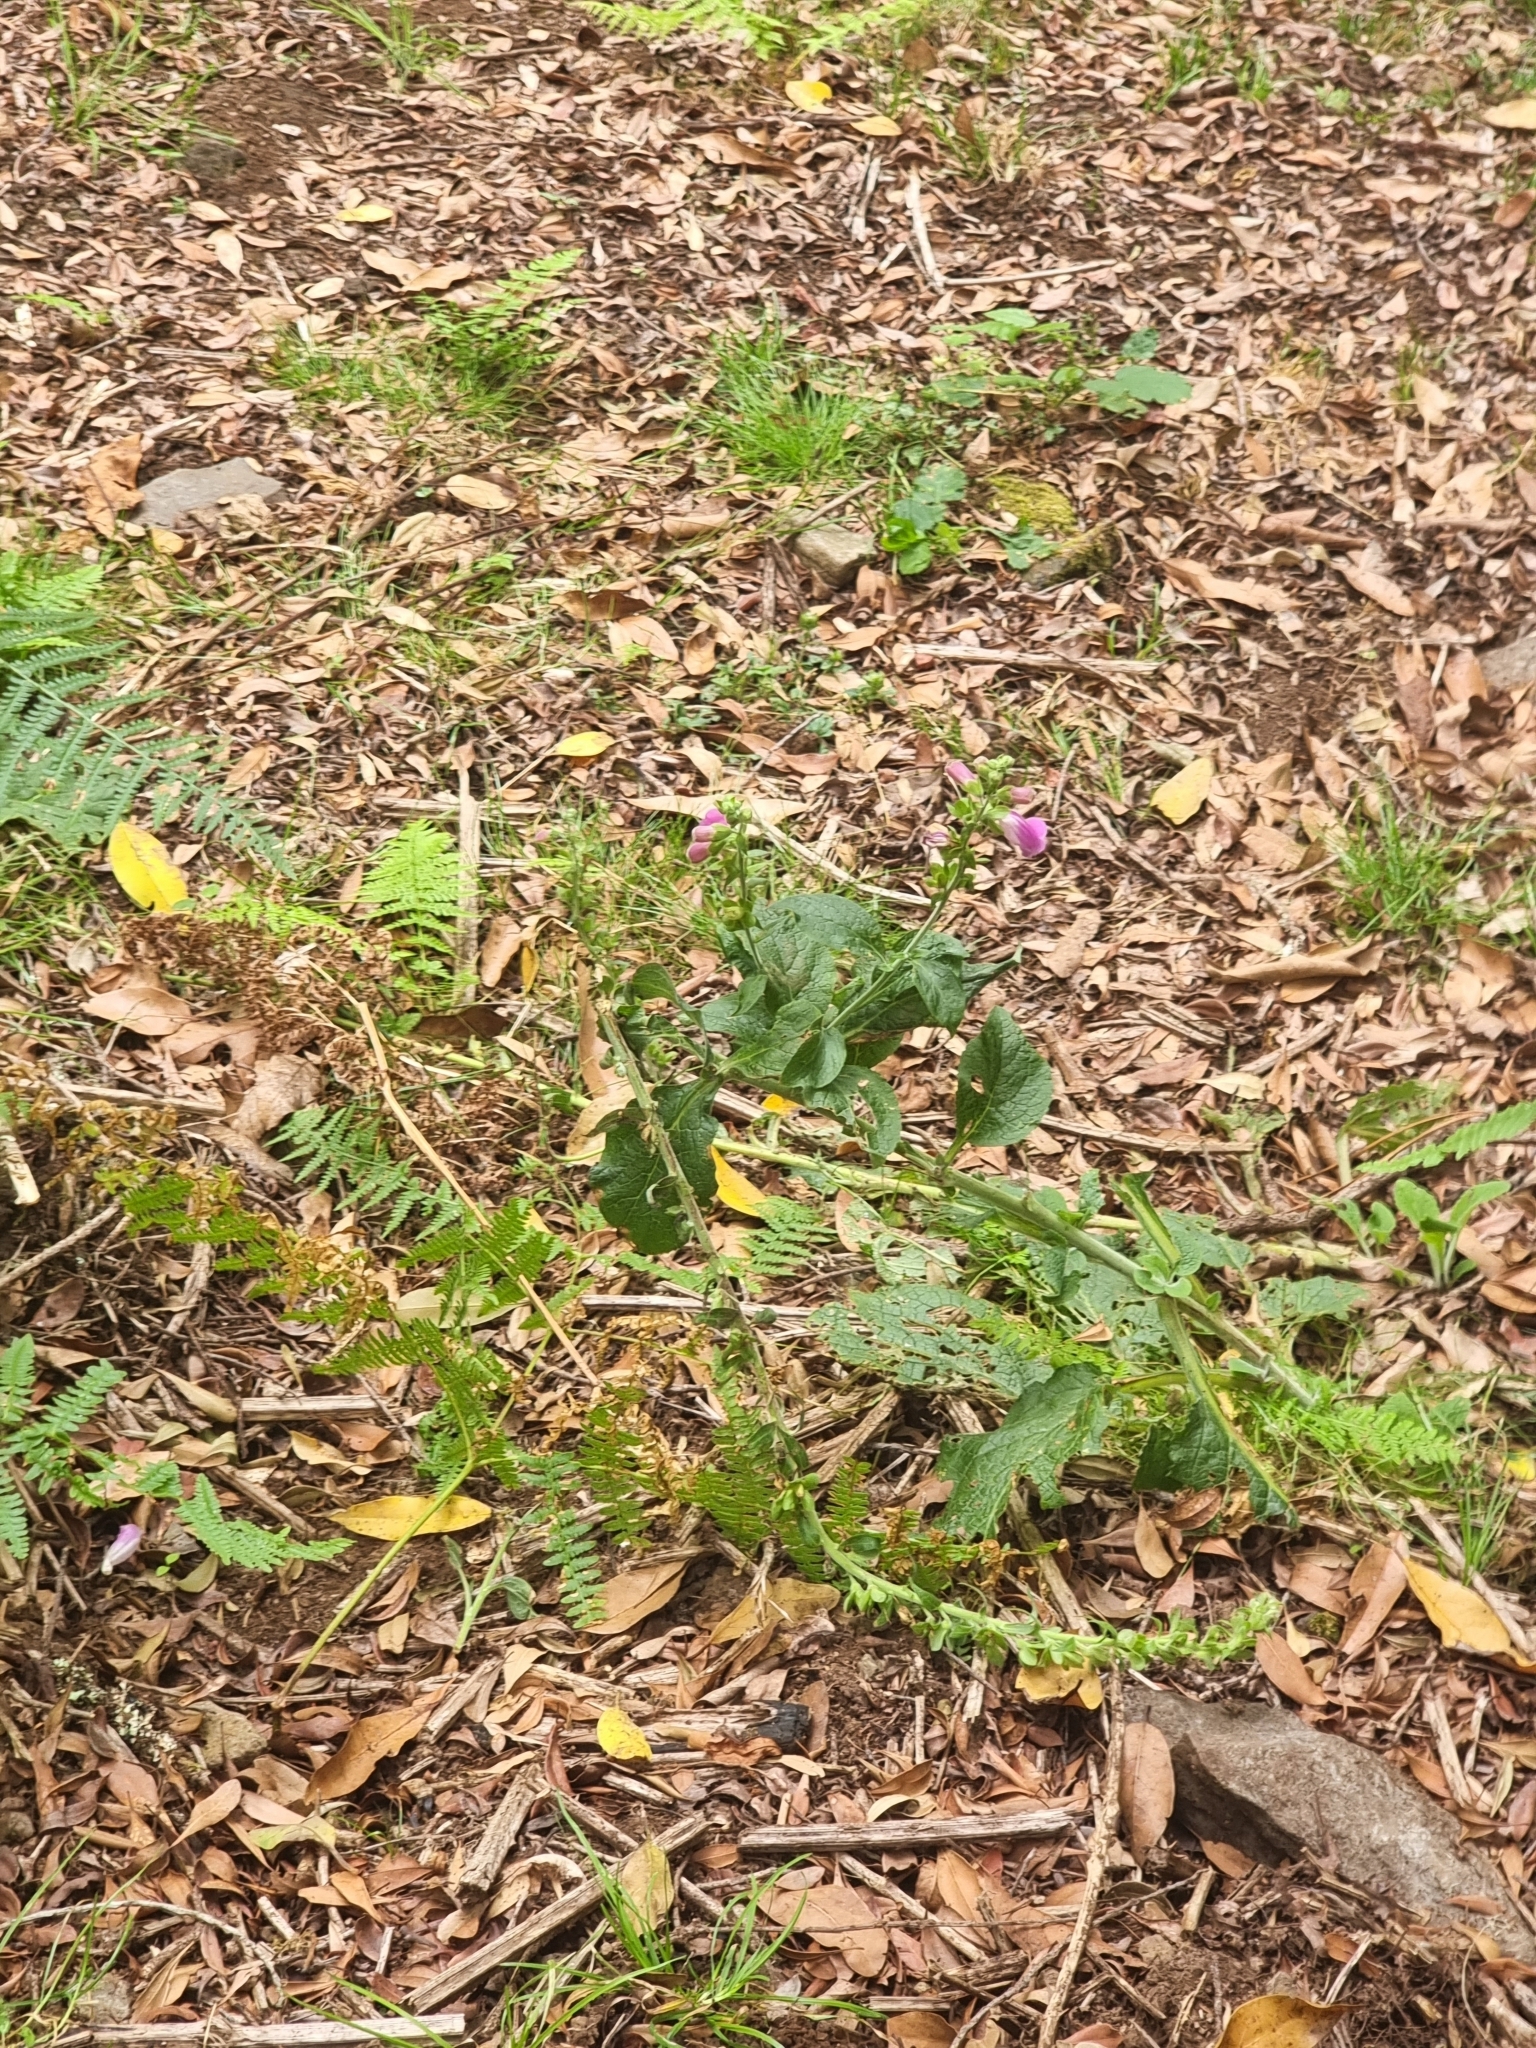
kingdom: Plantae
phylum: Tracheophyta
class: Magnoliopsida
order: Lamiales
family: Plantaginaceae
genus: Digitalis
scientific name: Digitalis purpurea
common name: Foxglove
